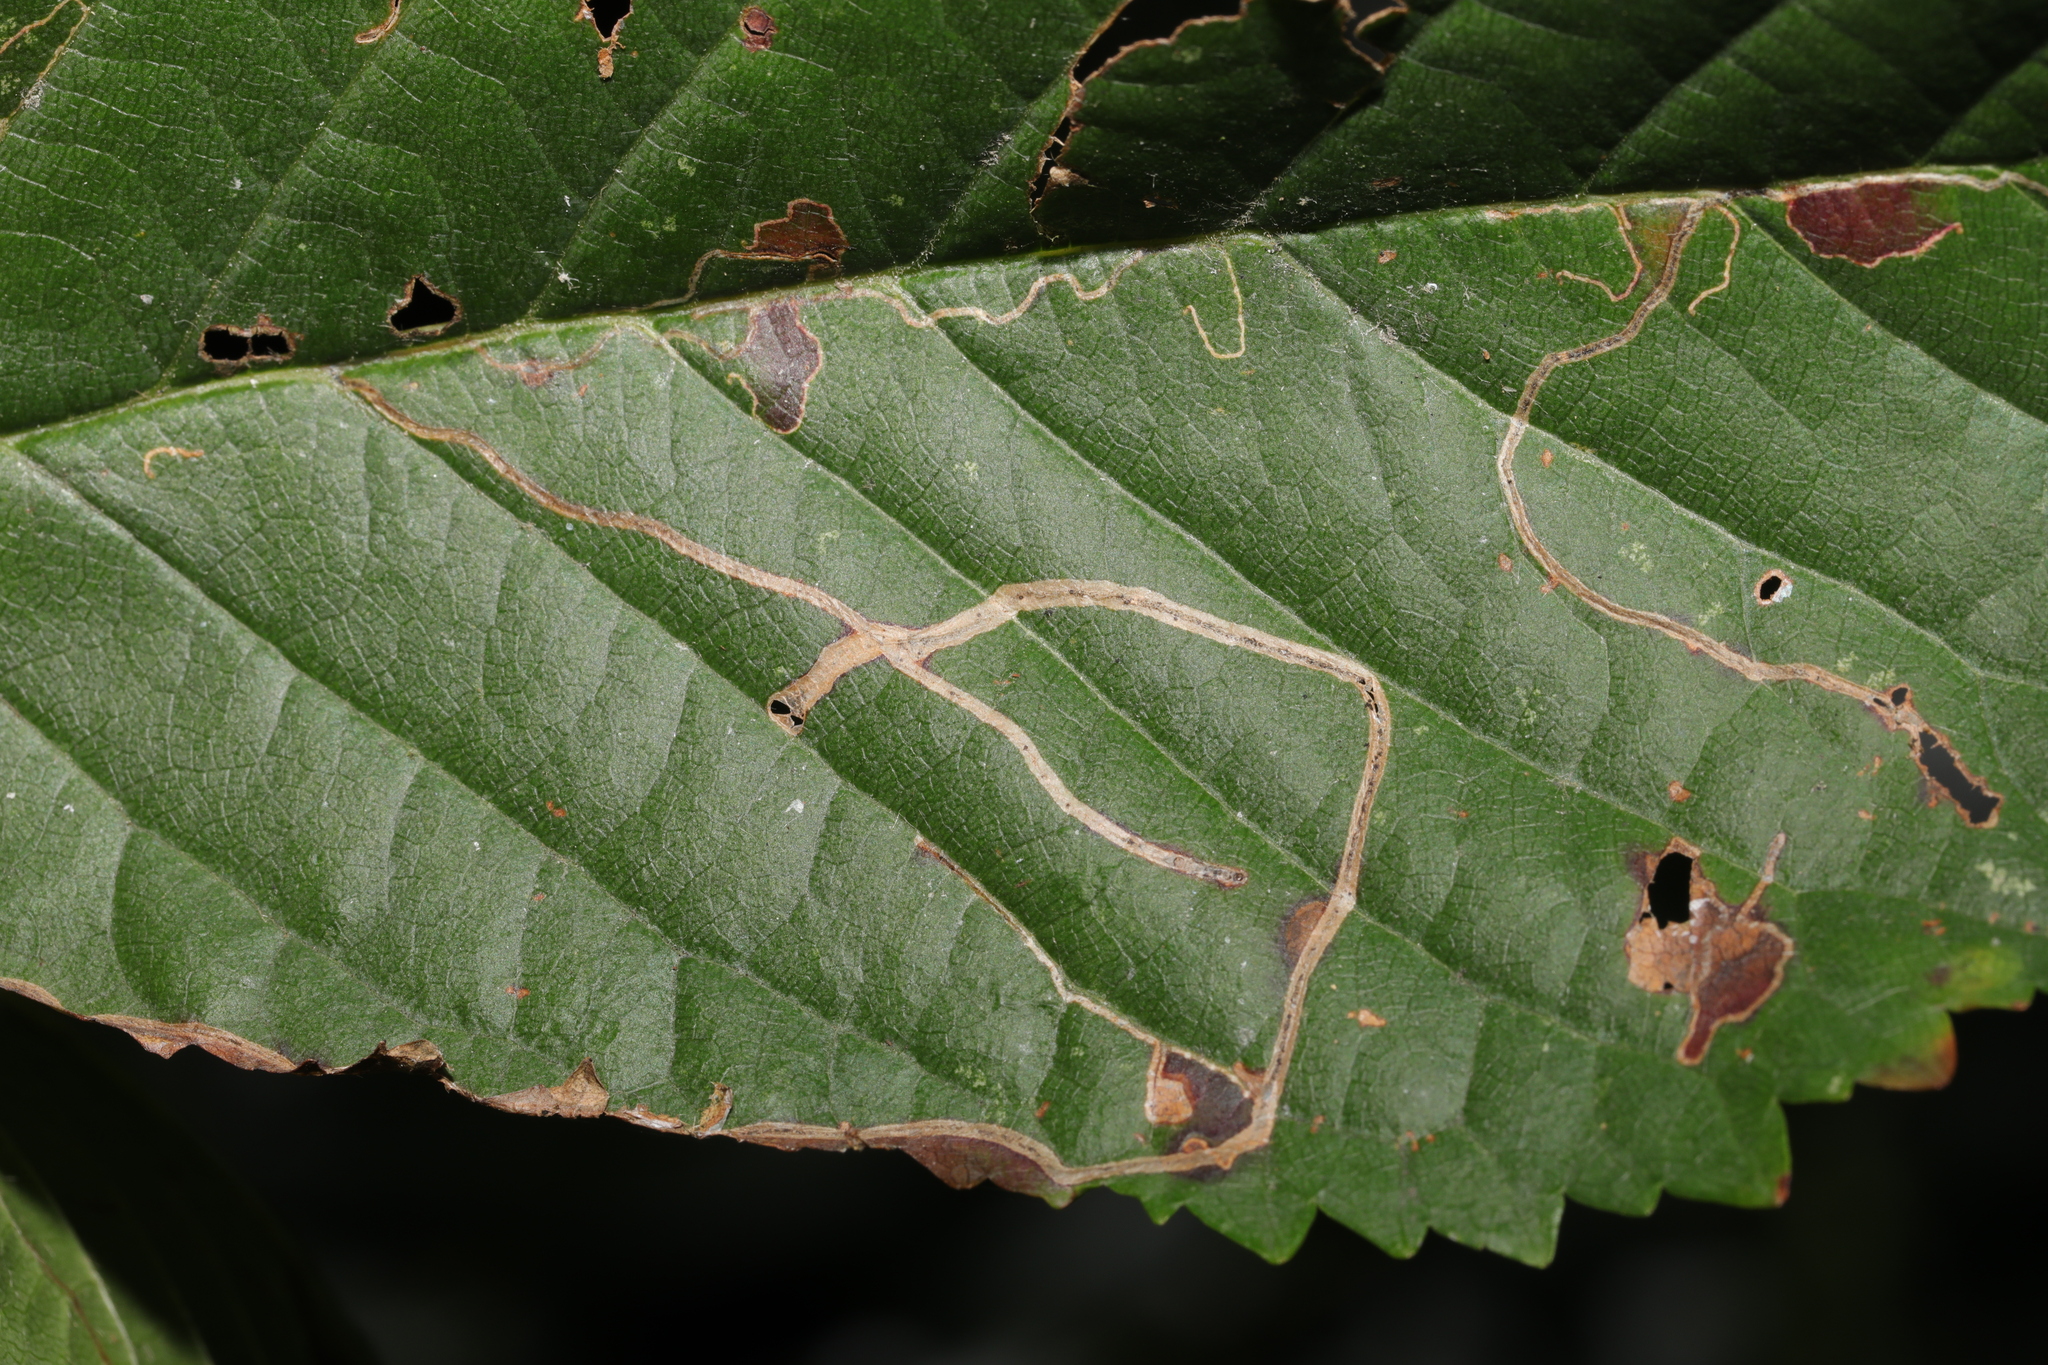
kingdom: Animalia
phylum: Arthropoda
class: Insecta
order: Lepidoptera
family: Lyonetiidae
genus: Lyonetia
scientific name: Lyonetia clerkella
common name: Apple leaf miner
